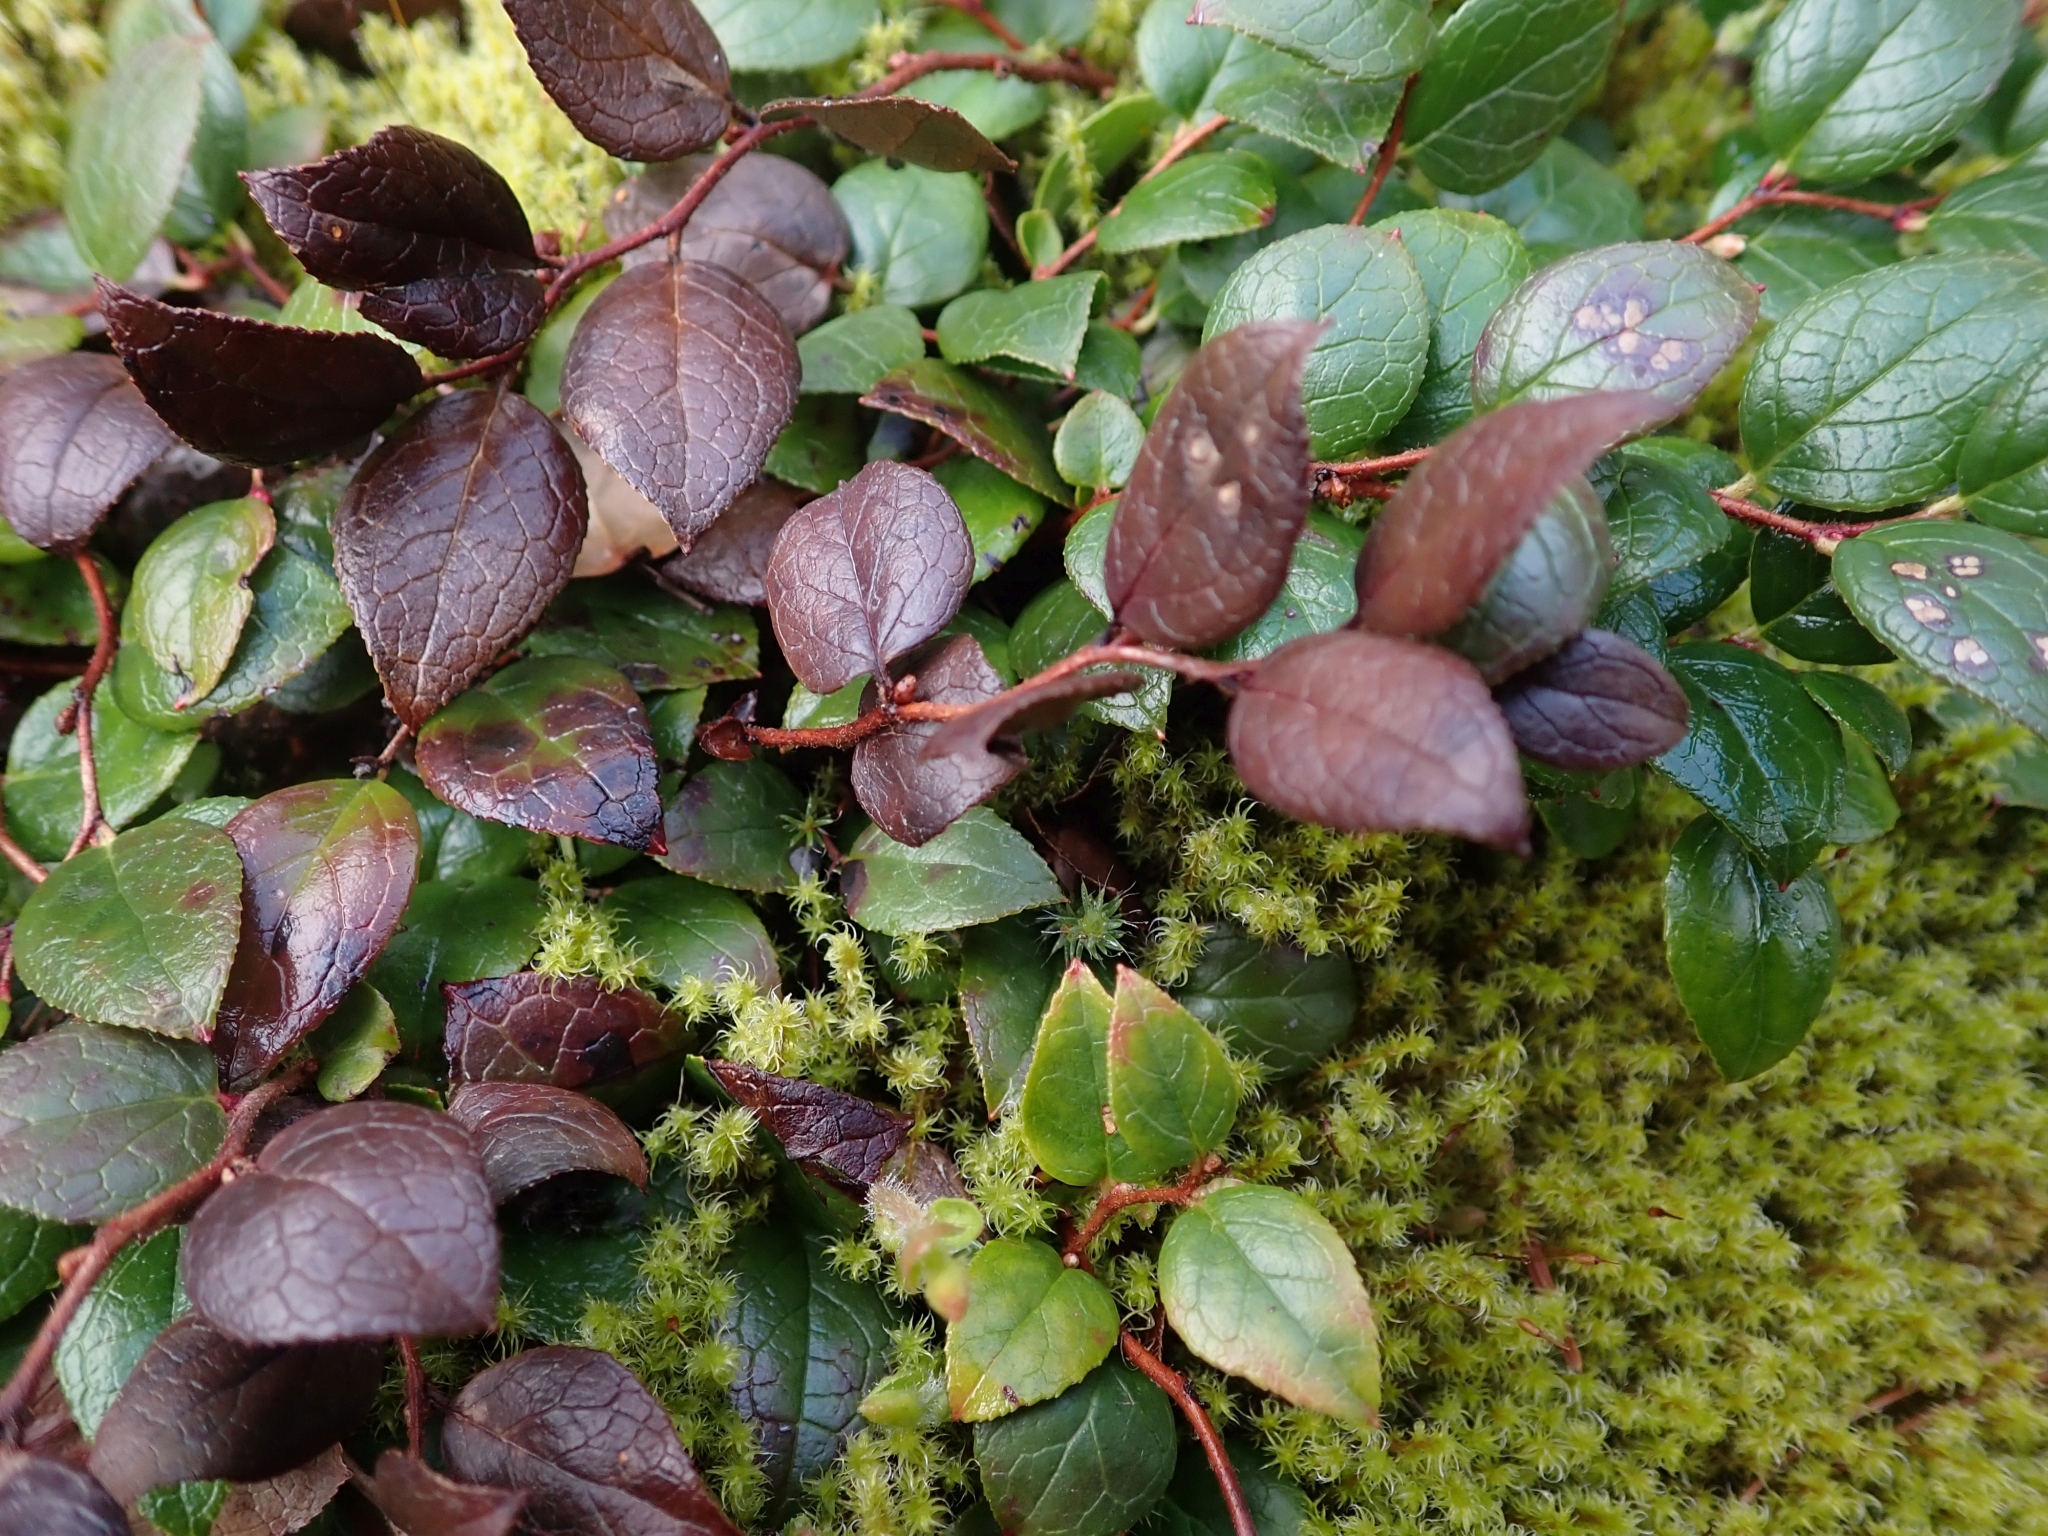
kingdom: Plantae
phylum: Tracheophyta
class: Magnoliopsida
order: Ericales
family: Ericaceae
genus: Gaultheria
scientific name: Gaultheria ovatifolia
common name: Oregon wintergreen
